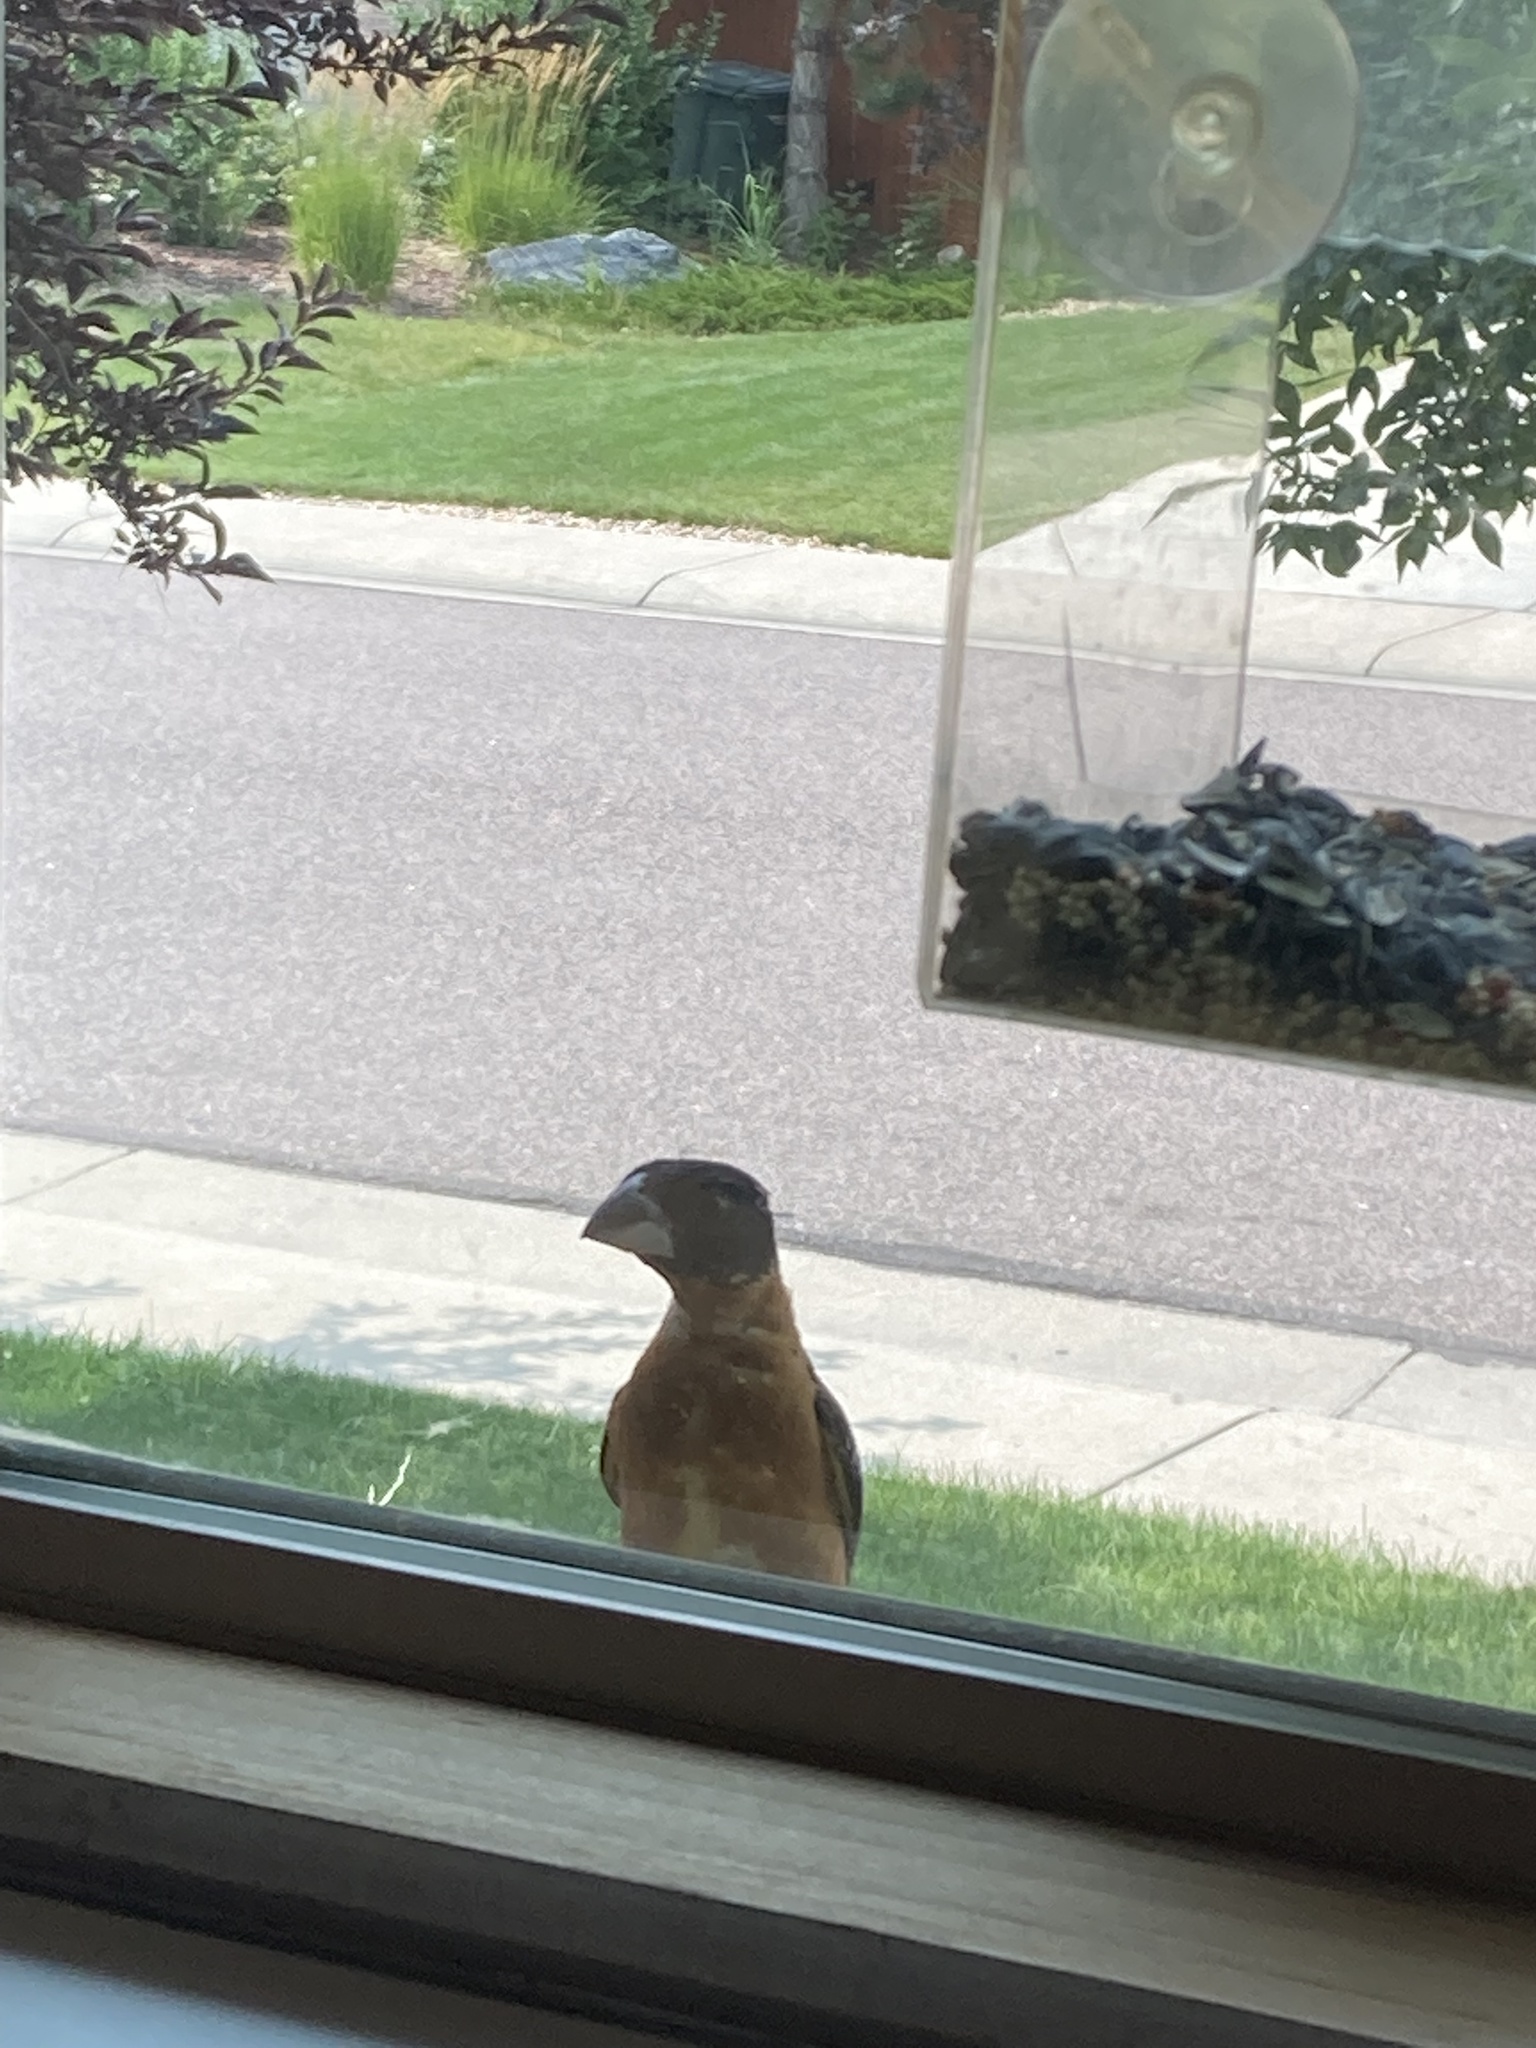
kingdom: Animalia
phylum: Chordata
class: Aves
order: Passeriformes
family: Cardinalidae
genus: Pheucticus
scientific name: Pheucticus melanocephalus
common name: Black-headed grosbeak
